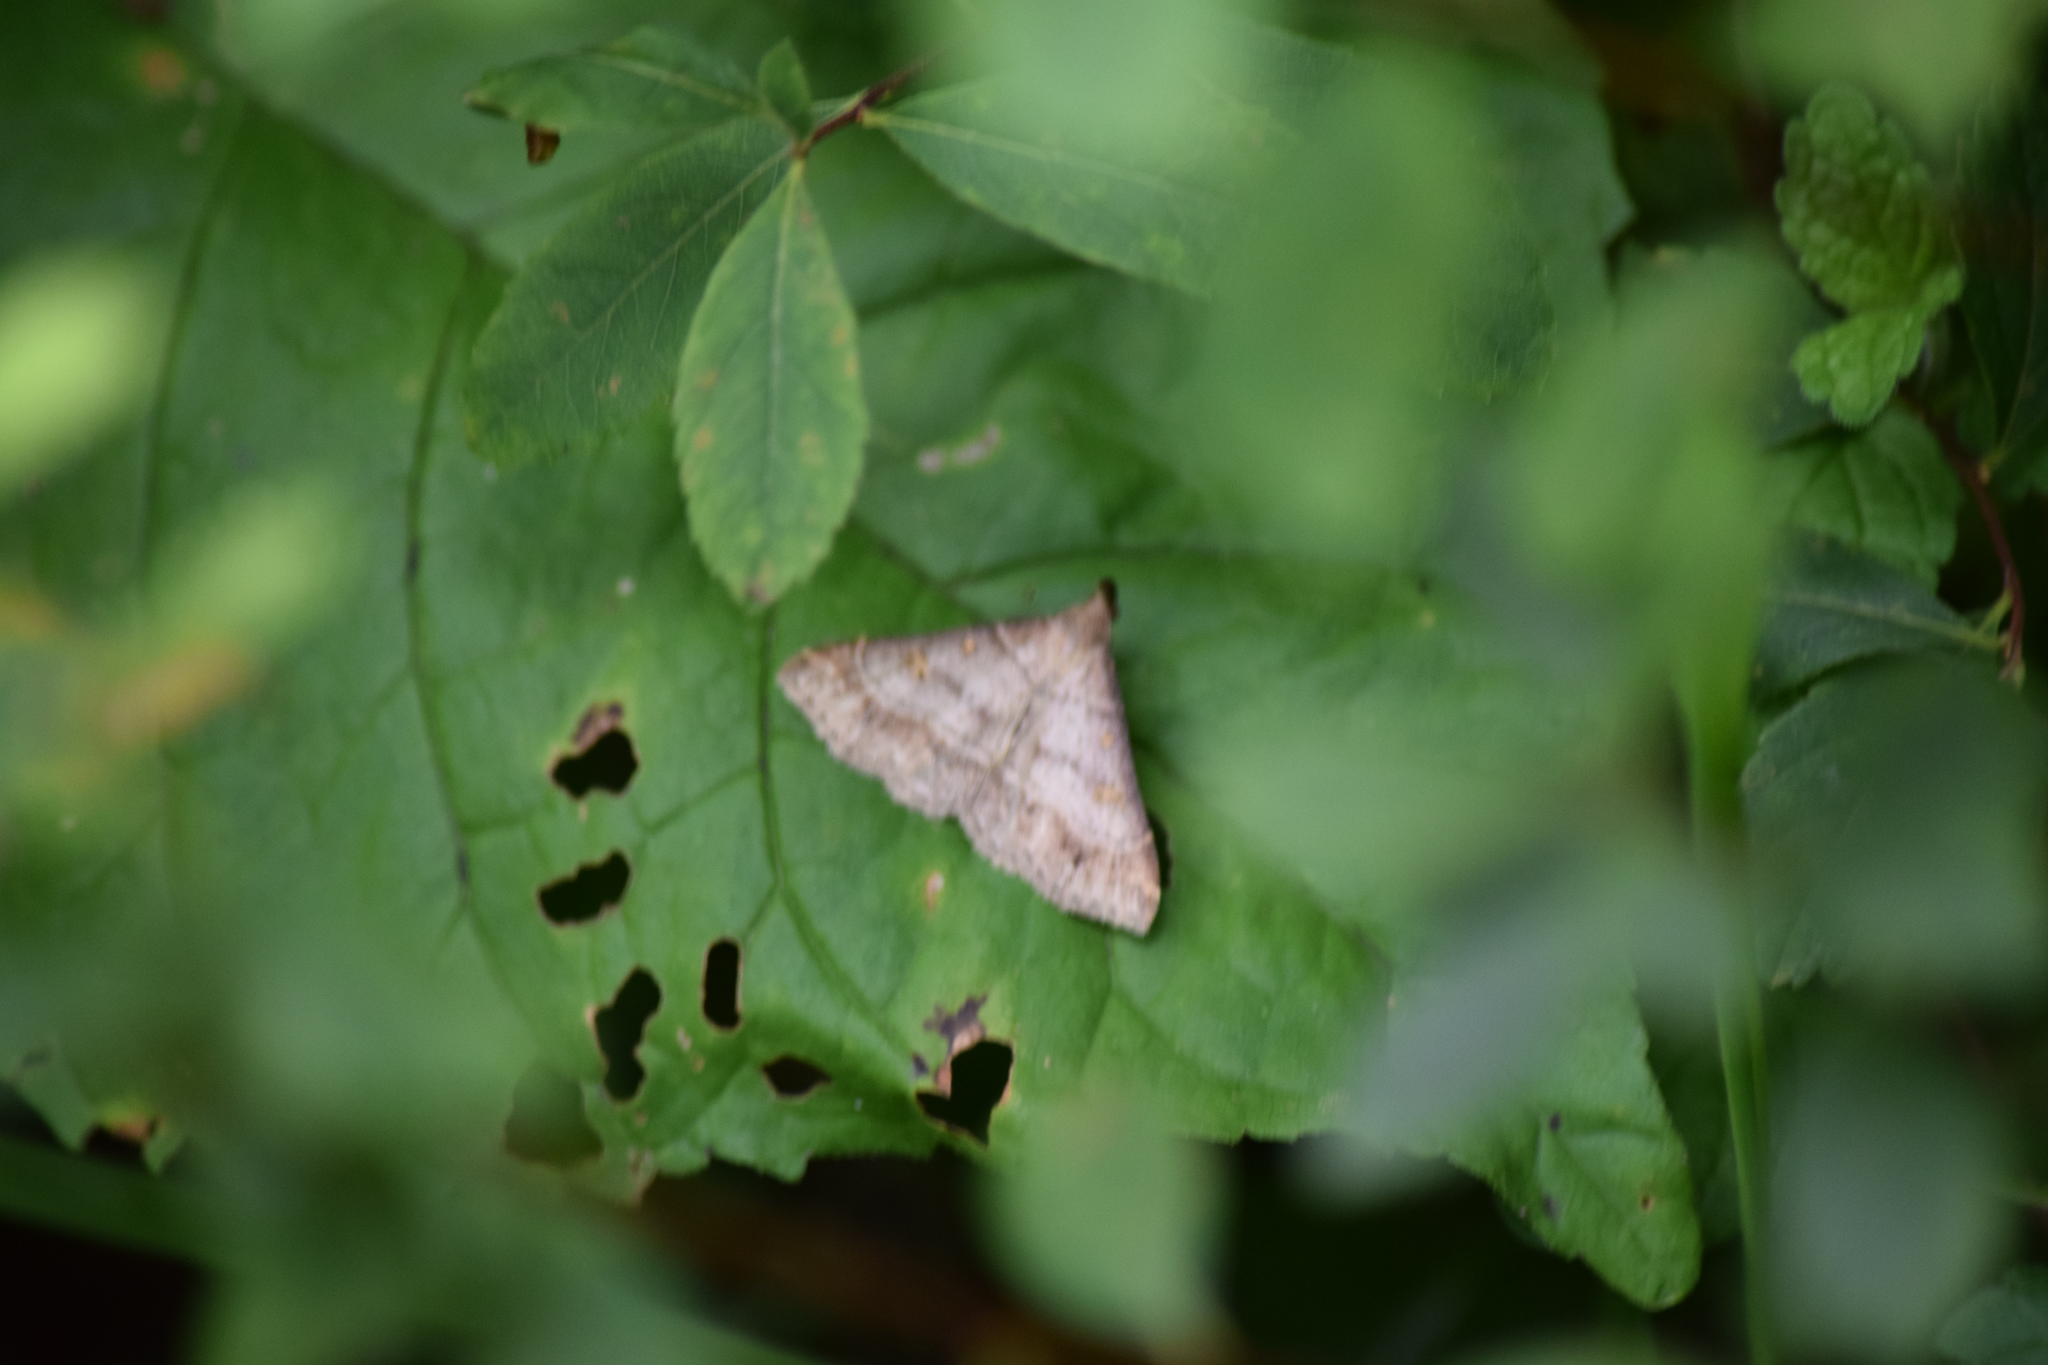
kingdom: Animalia
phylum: Arthropoda
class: Insecta
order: Lepidoptera
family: Erebidae
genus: Renia
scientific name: Renia flavipunctalis
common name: Yellow-spotted renia moth
